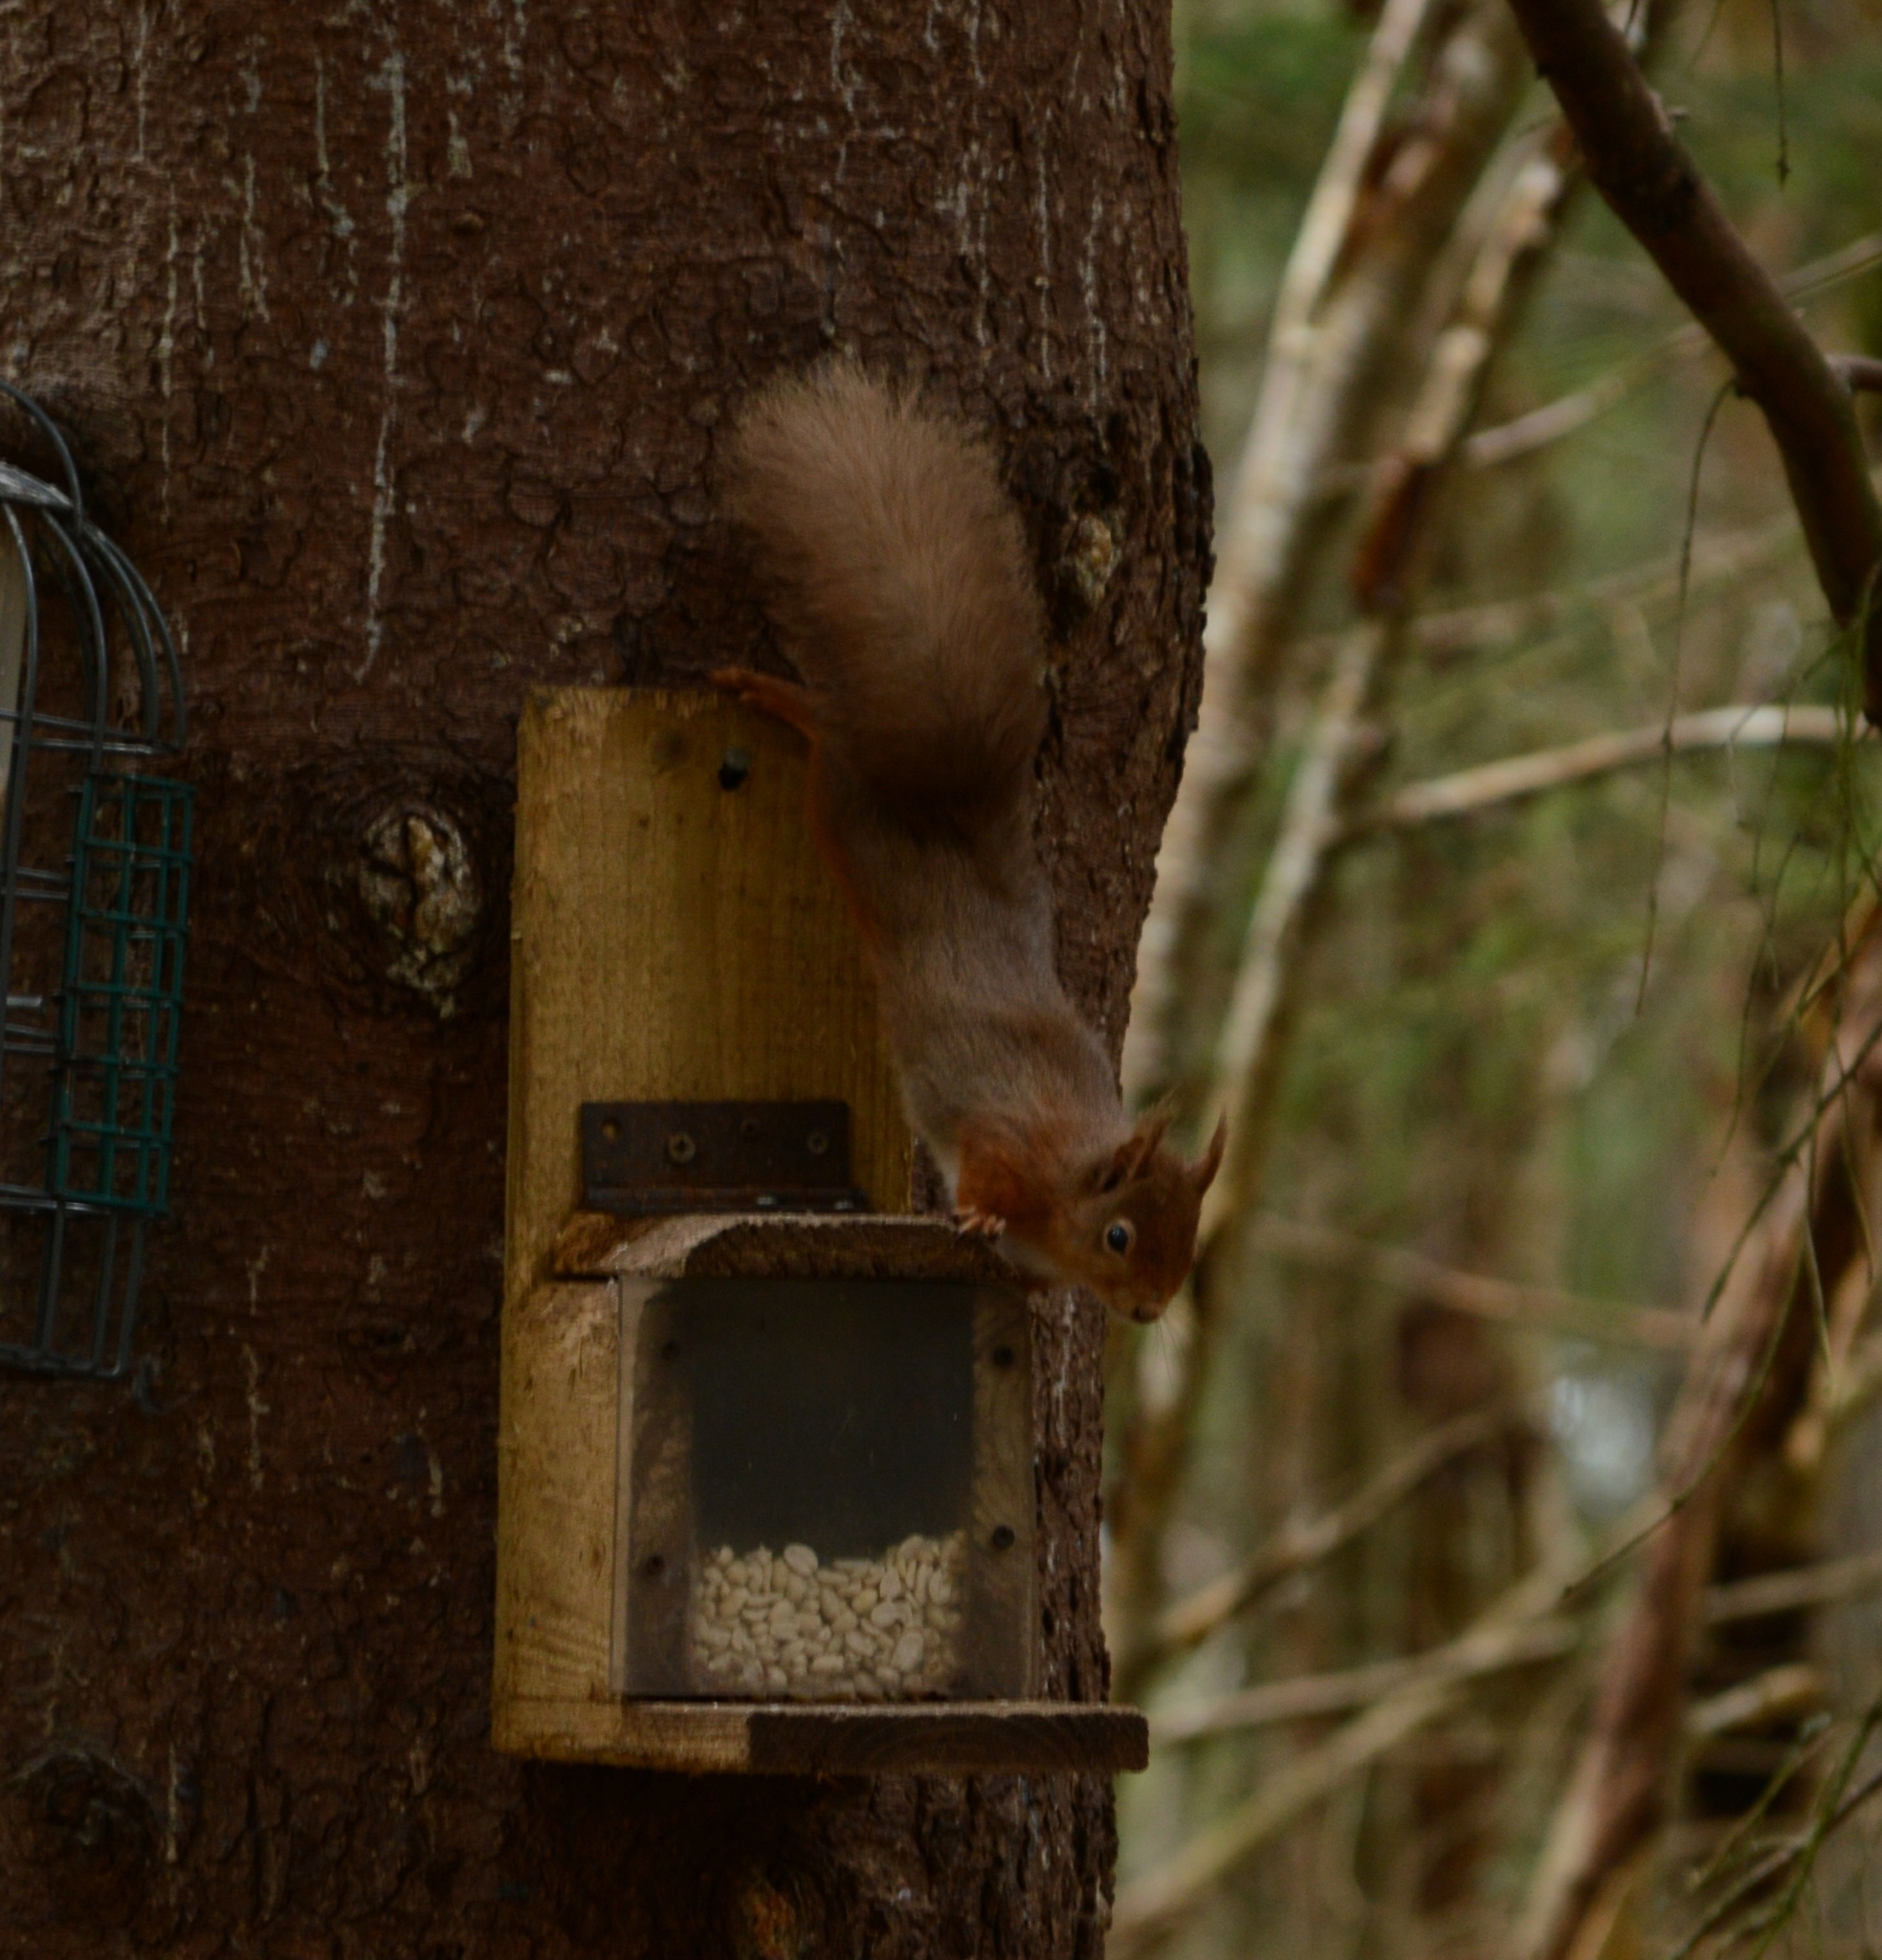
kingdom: Animalia
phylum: Chordata
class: Mammalia
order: Rodentia
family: Sciuridae
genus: Sciurus
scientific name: Sciurus vulgaris
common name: Eurasian red squirrel
